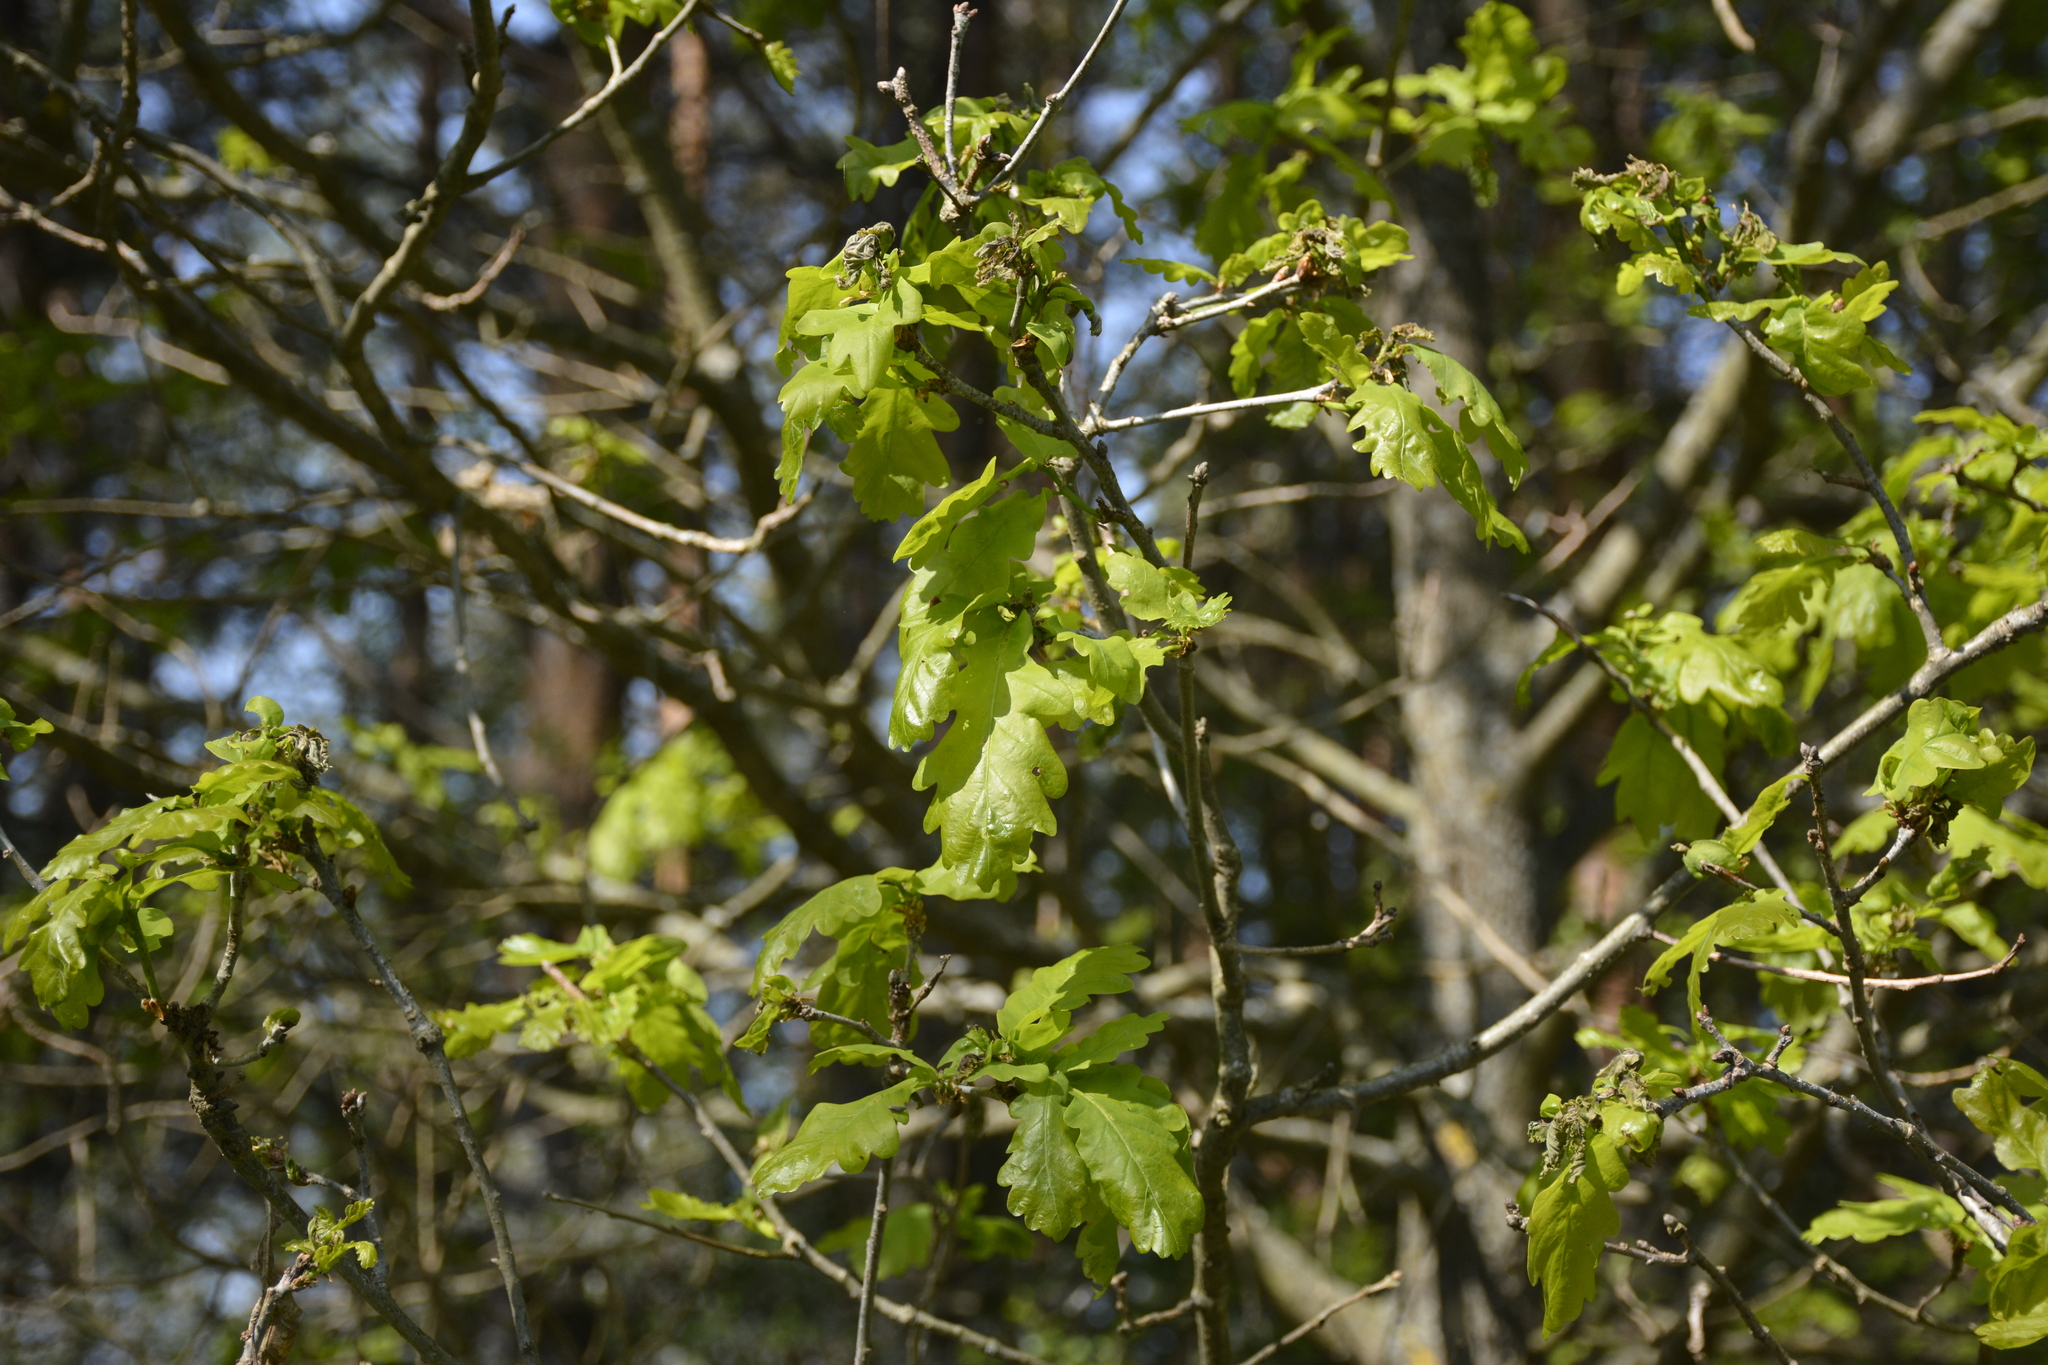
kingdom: Plantae
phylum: Tracheophyta
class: Magnoliopsida
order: Fagales
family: Fagaceae
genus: Quercus
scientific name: Quercus robur
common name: Pedunculate oak
